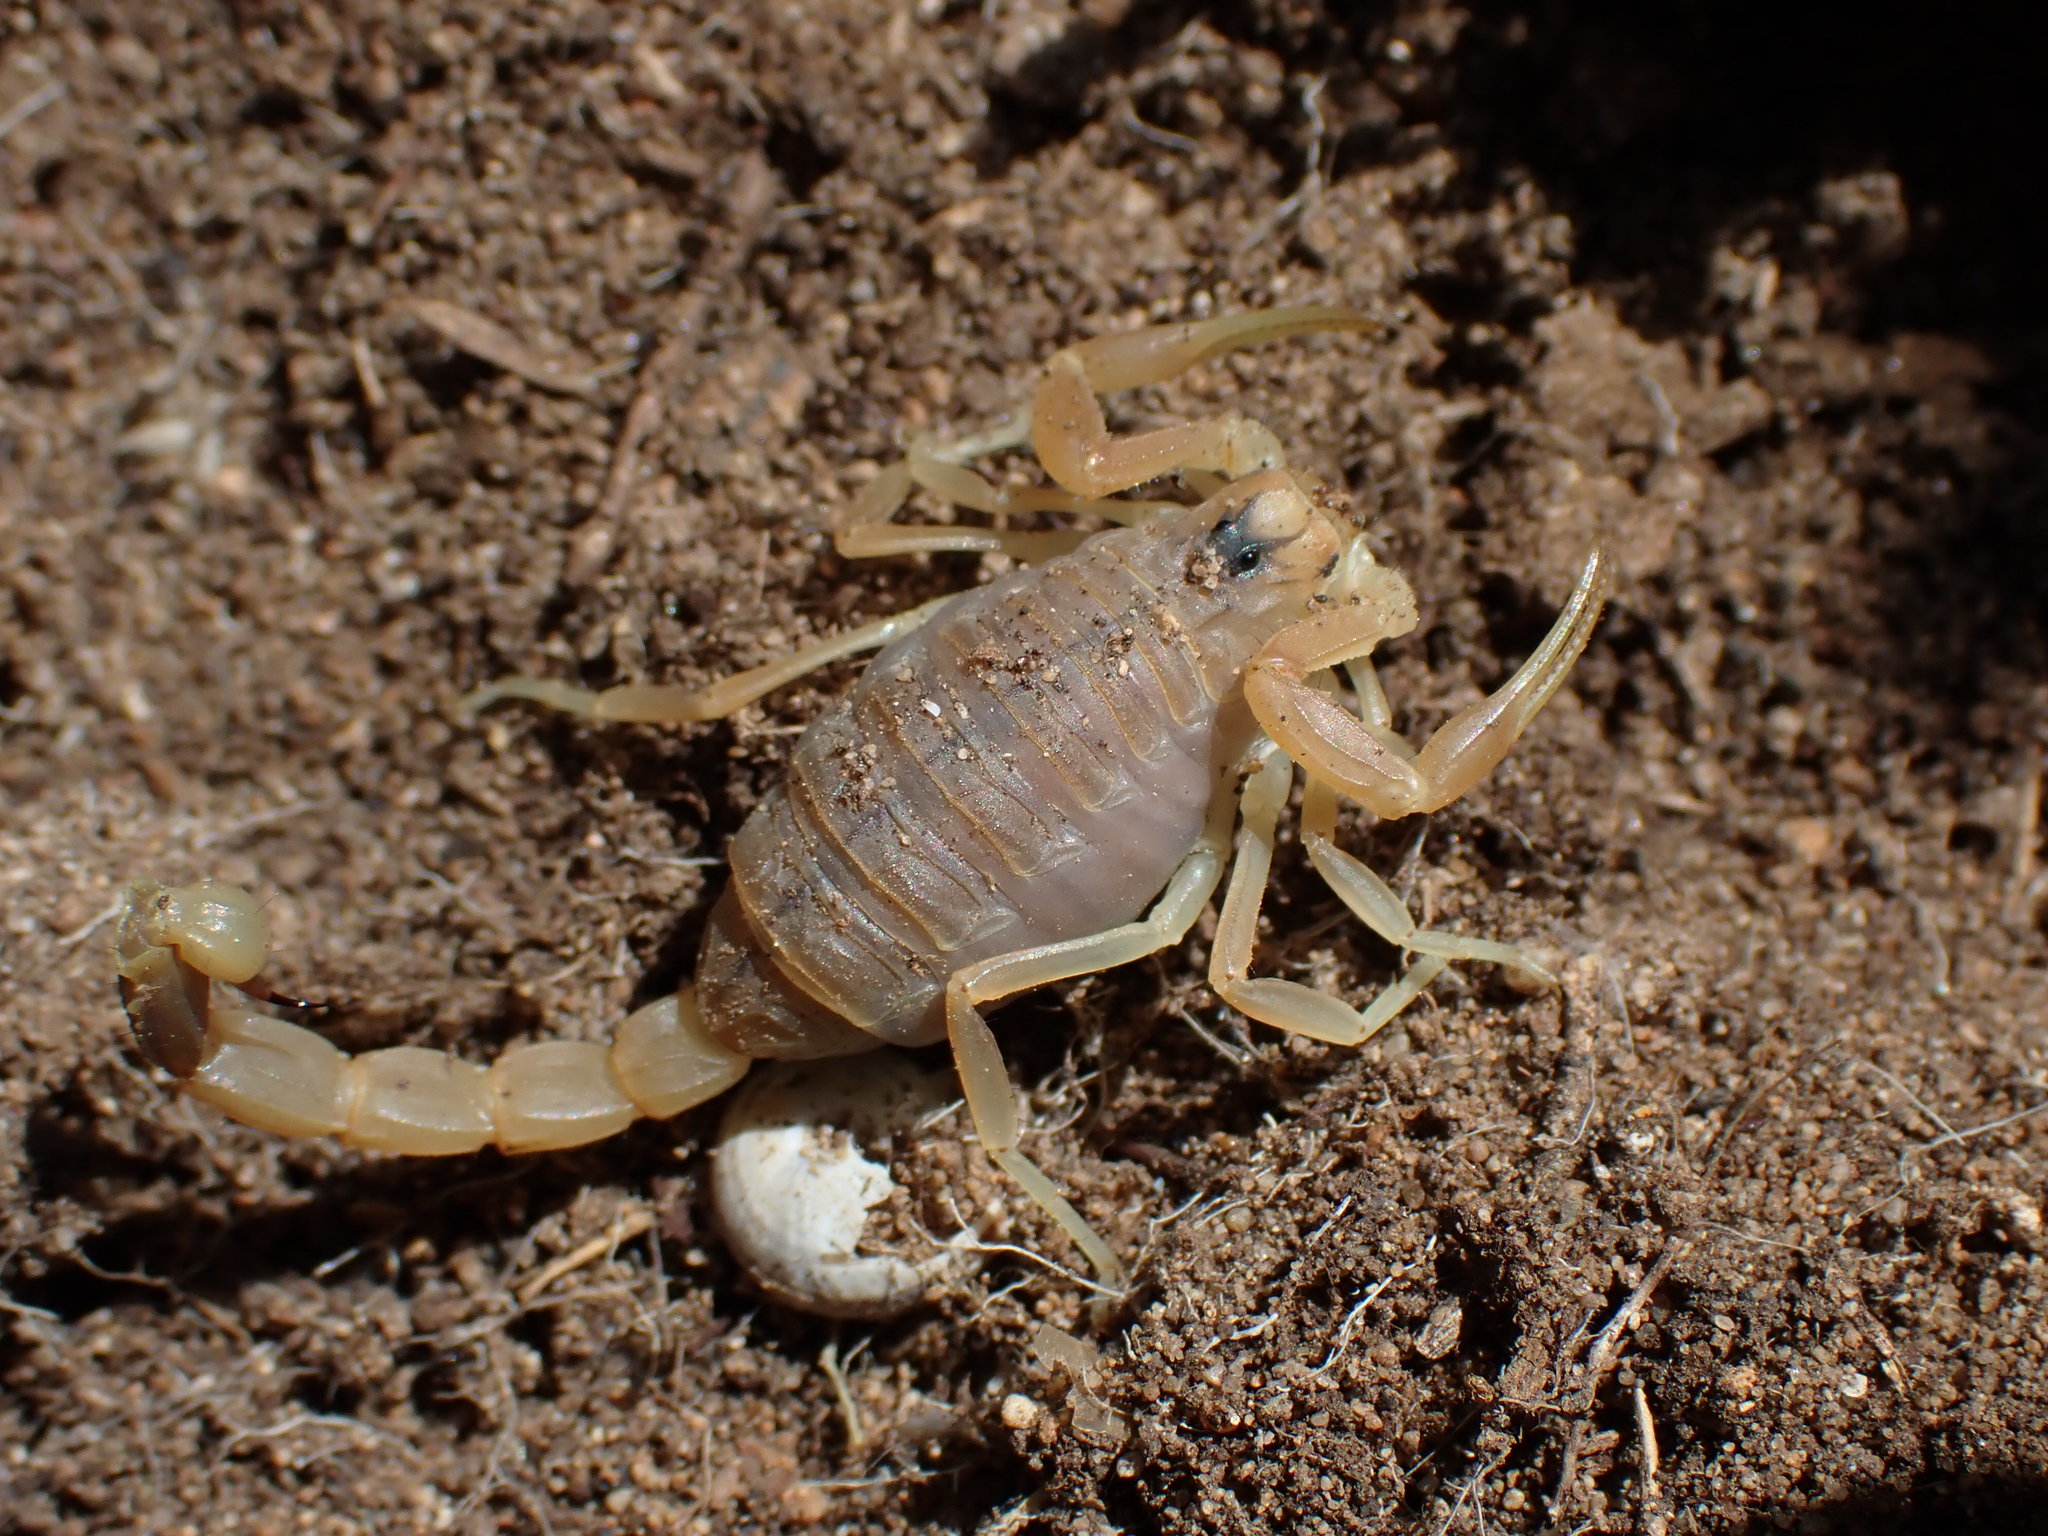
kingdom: Animalia
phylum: Arthropoda
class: Arachnida
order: Scorpiones
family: Buthidae
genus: Buthus
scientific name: Buthus occitanus
